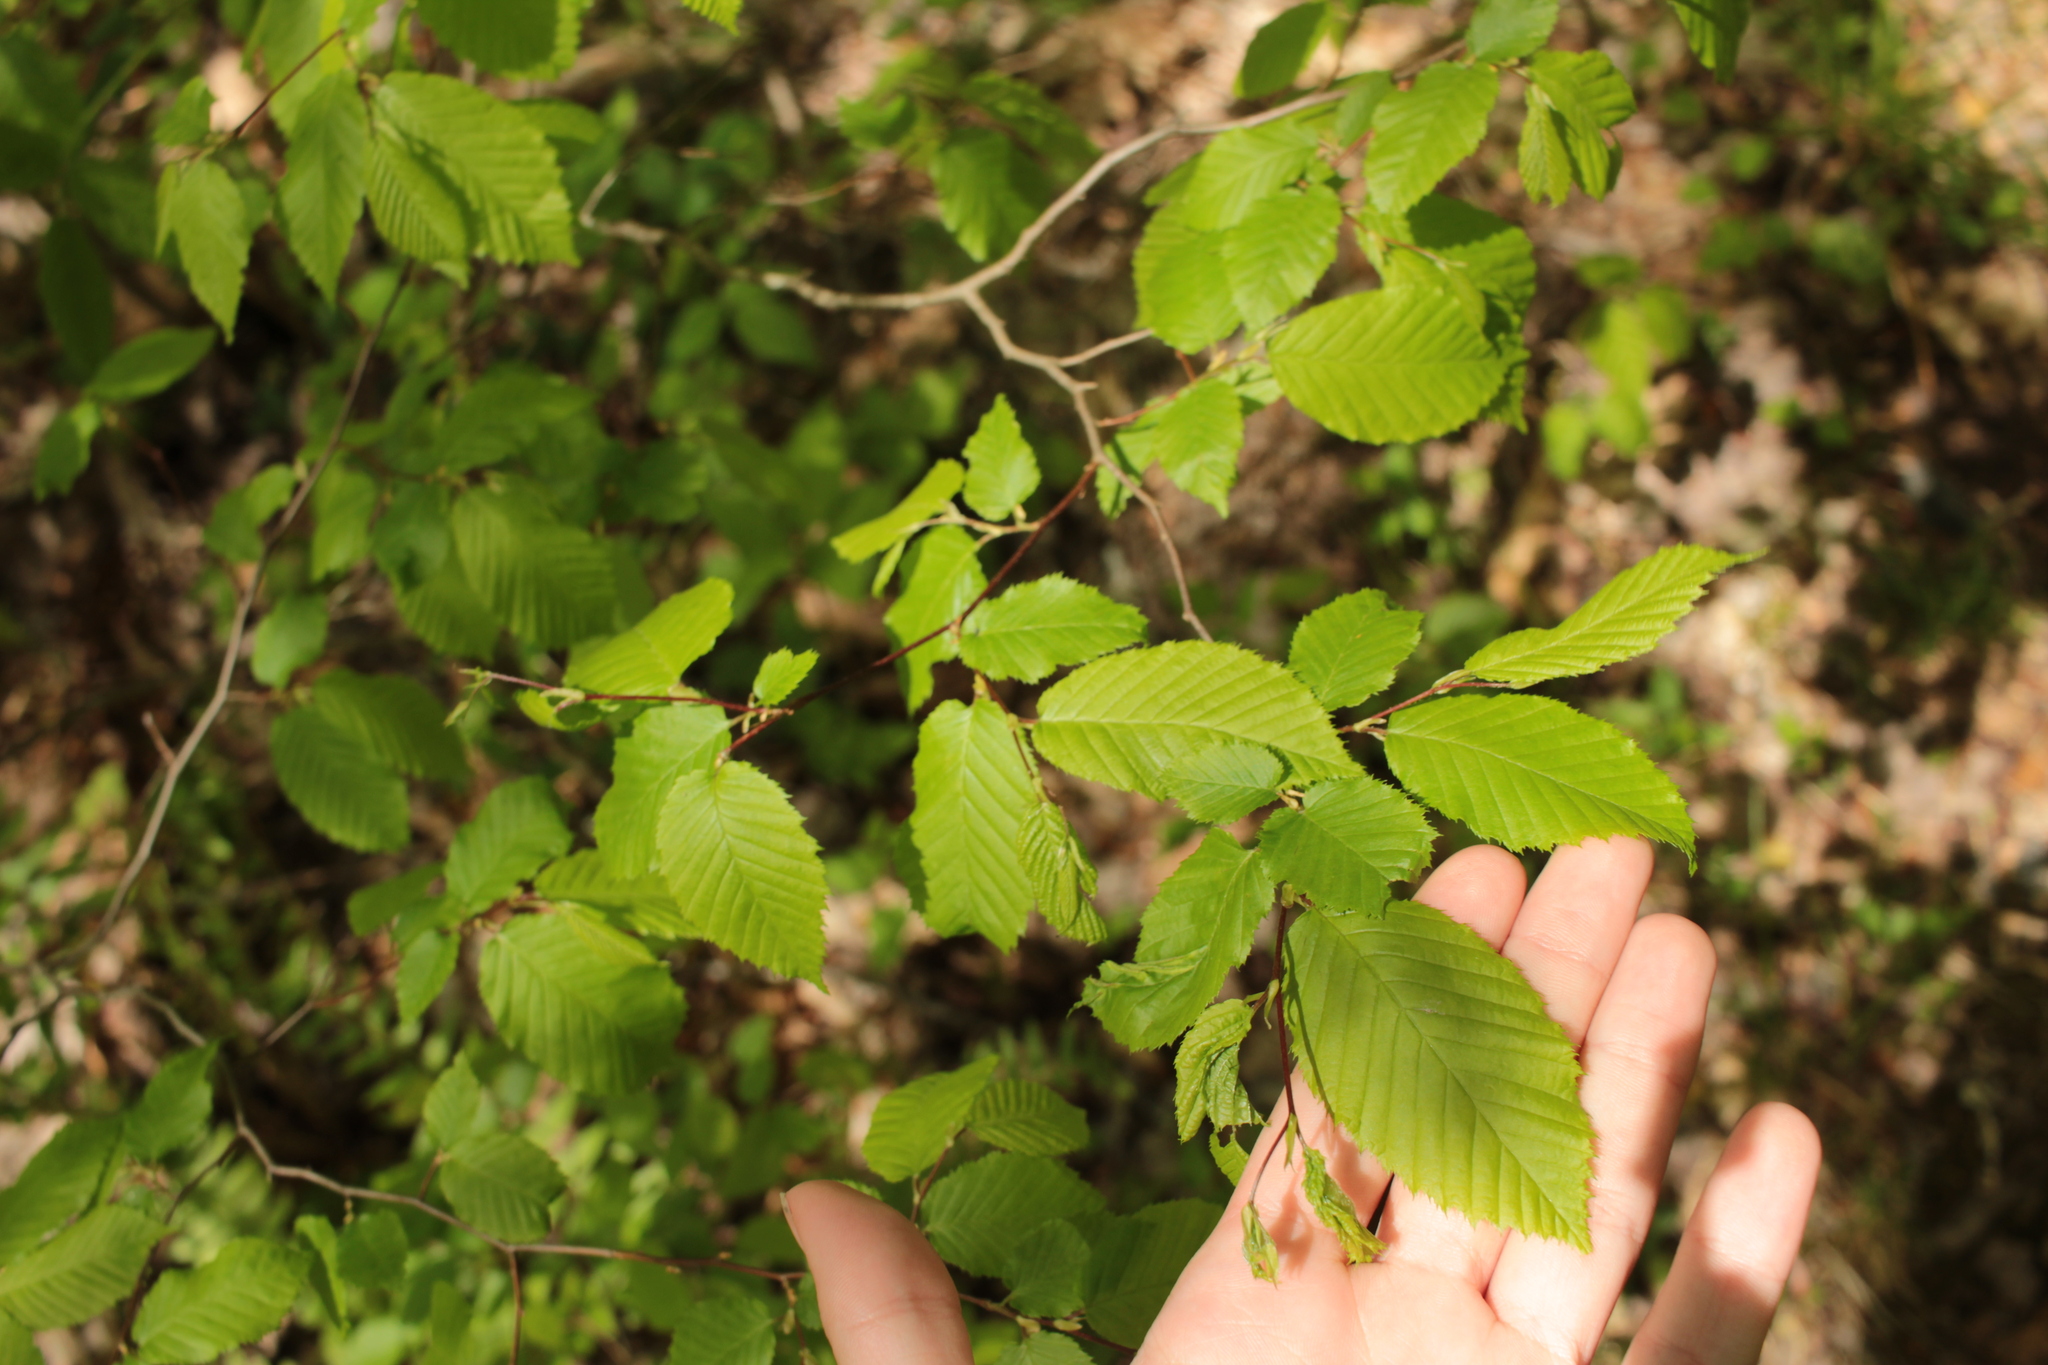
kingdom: Plantae
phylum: Tracheophyta
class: Magnoliopsida
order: Fagales
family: Betulaceae
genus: Carpinus
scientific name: Carpinus caroliniana
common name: American hornbeam
